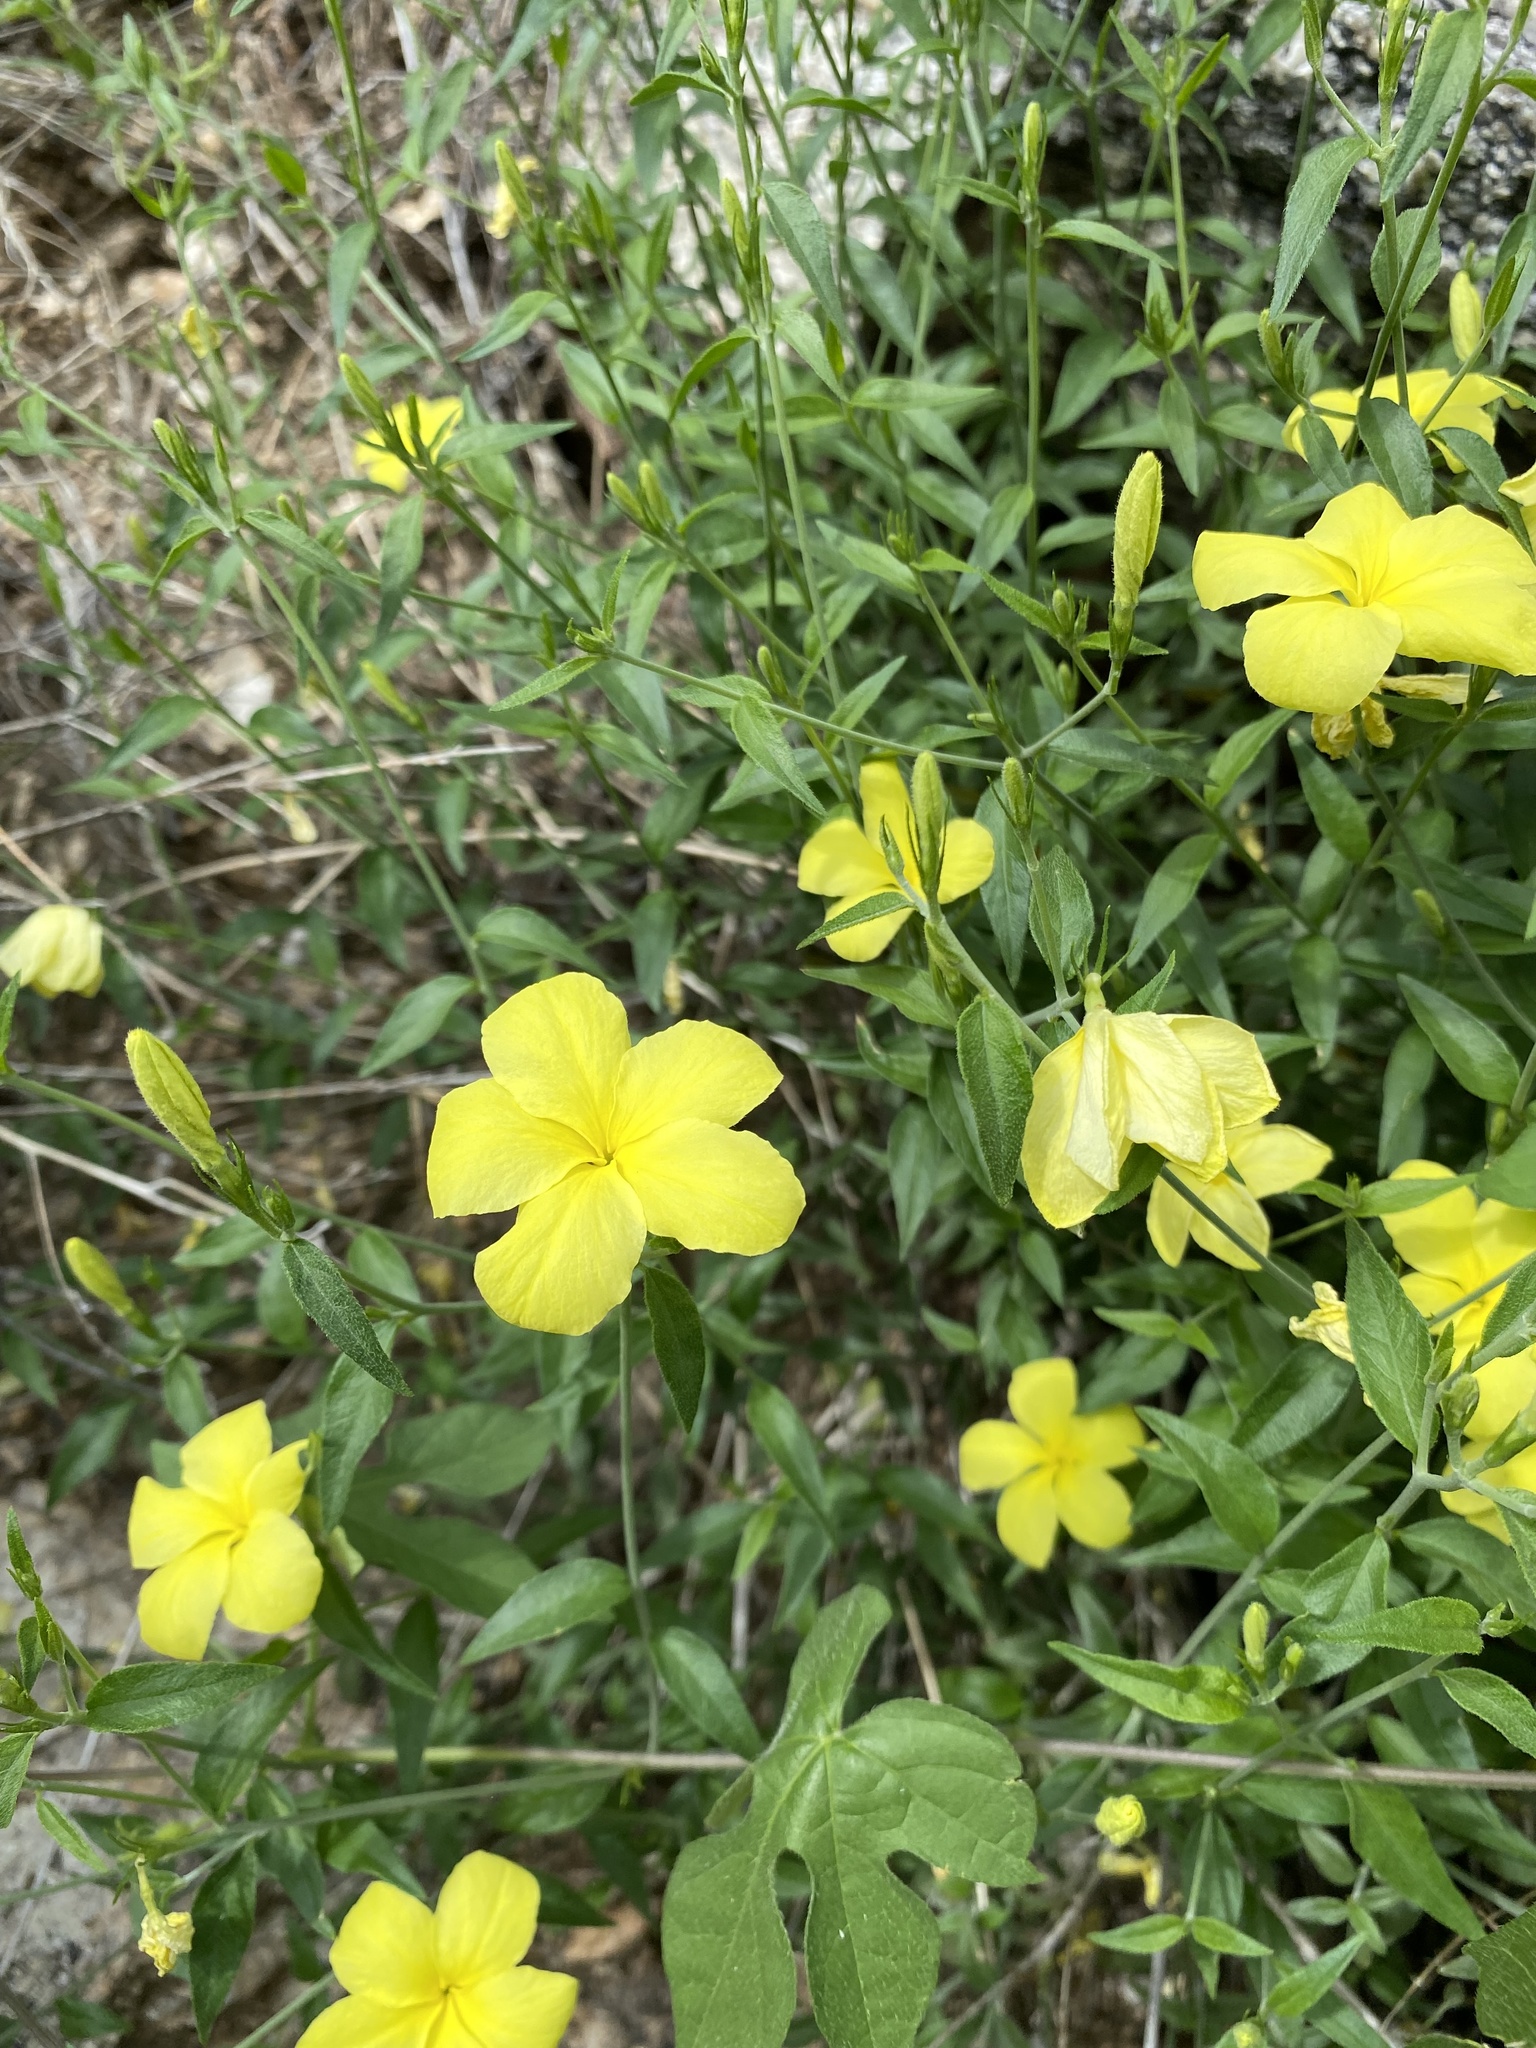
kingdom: Plantae
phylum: Tracheophyta
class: Magnoliopsida
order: Gentianales
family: Apocynaceae
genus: Haplophyton
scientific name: Haplophyton crooksii
